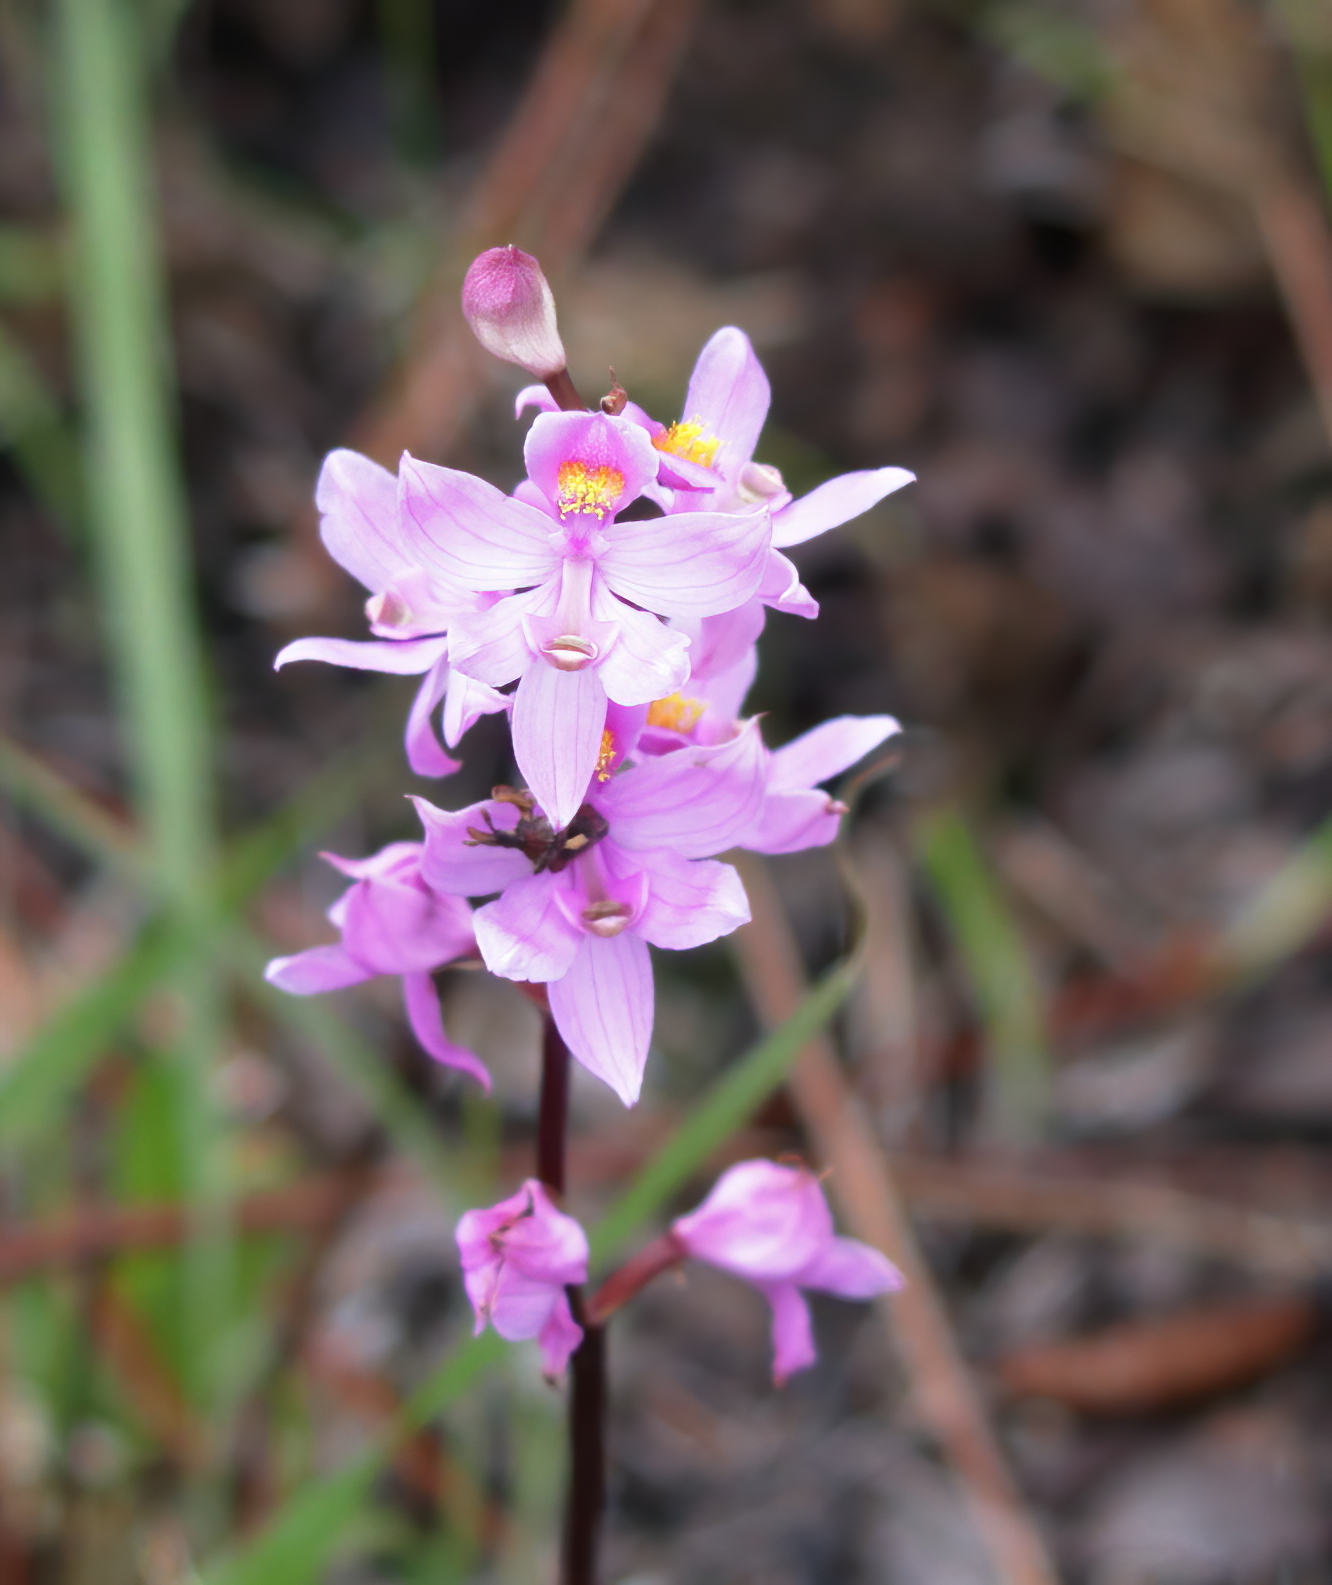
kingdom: Plantae
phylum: Tracheophyta
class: Liliopsida
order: Asparagales
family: Orchidaceae
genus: Calopogon
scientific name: Calopogon multiflorus
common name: Many-flowered grass-pink orchid
